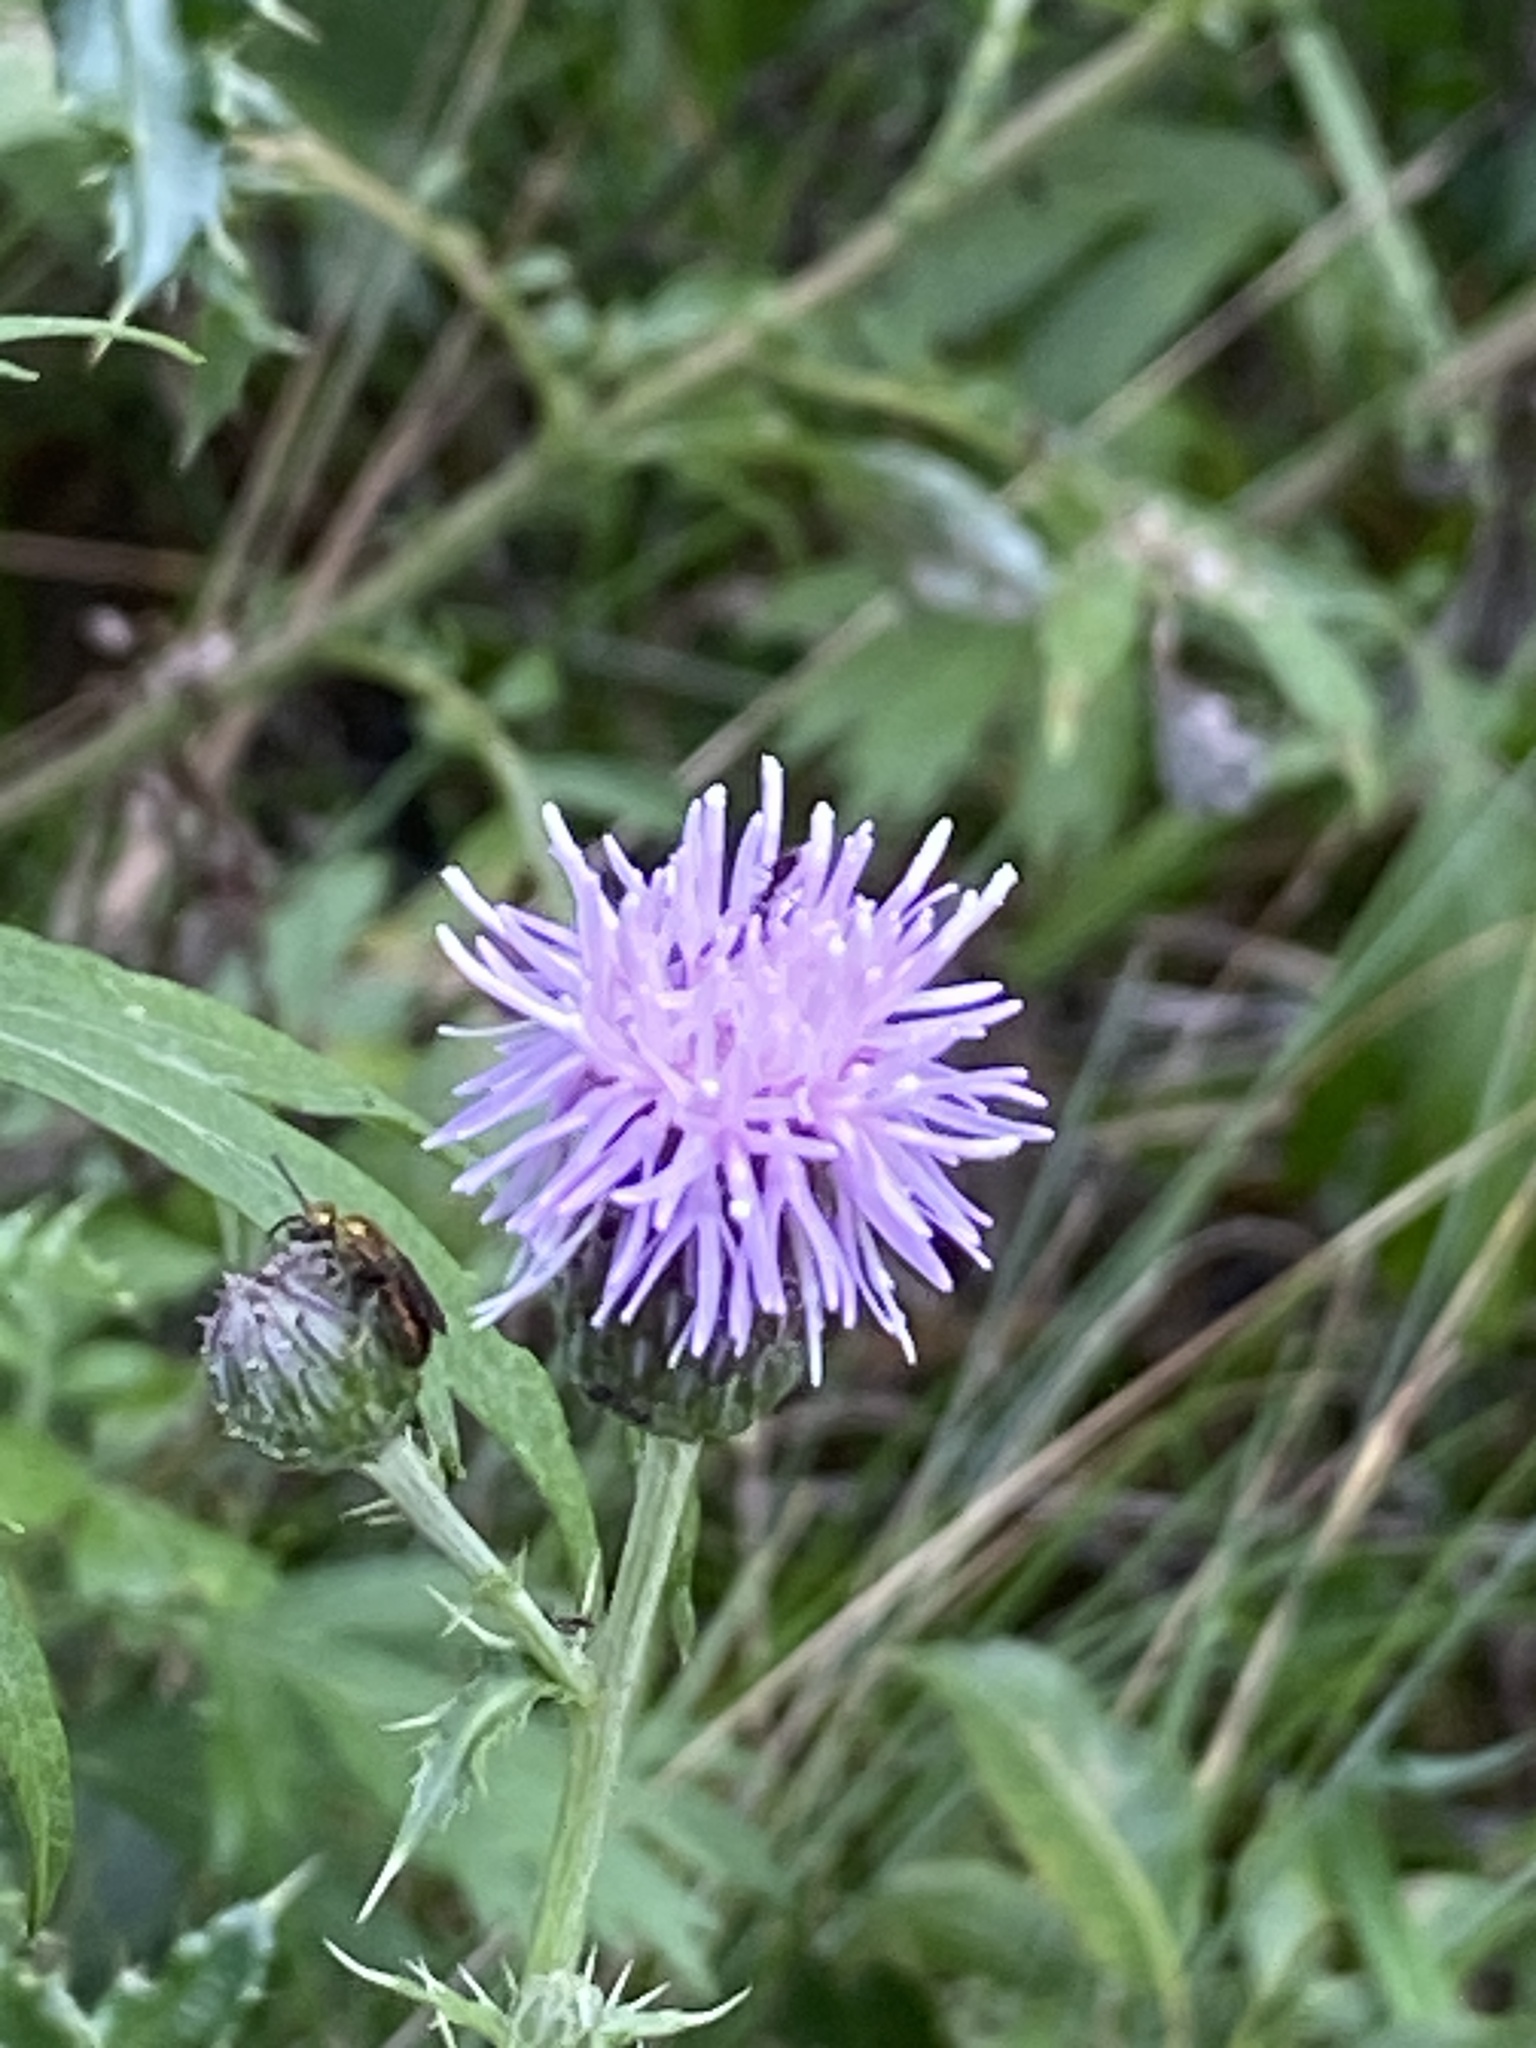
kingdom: Plantae
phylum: Tracheophyta
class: Magnoliopsida
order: Asterales
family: Asteraceae
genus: Cirsium
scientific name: Cirsium arvense
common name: Creeping thistle
